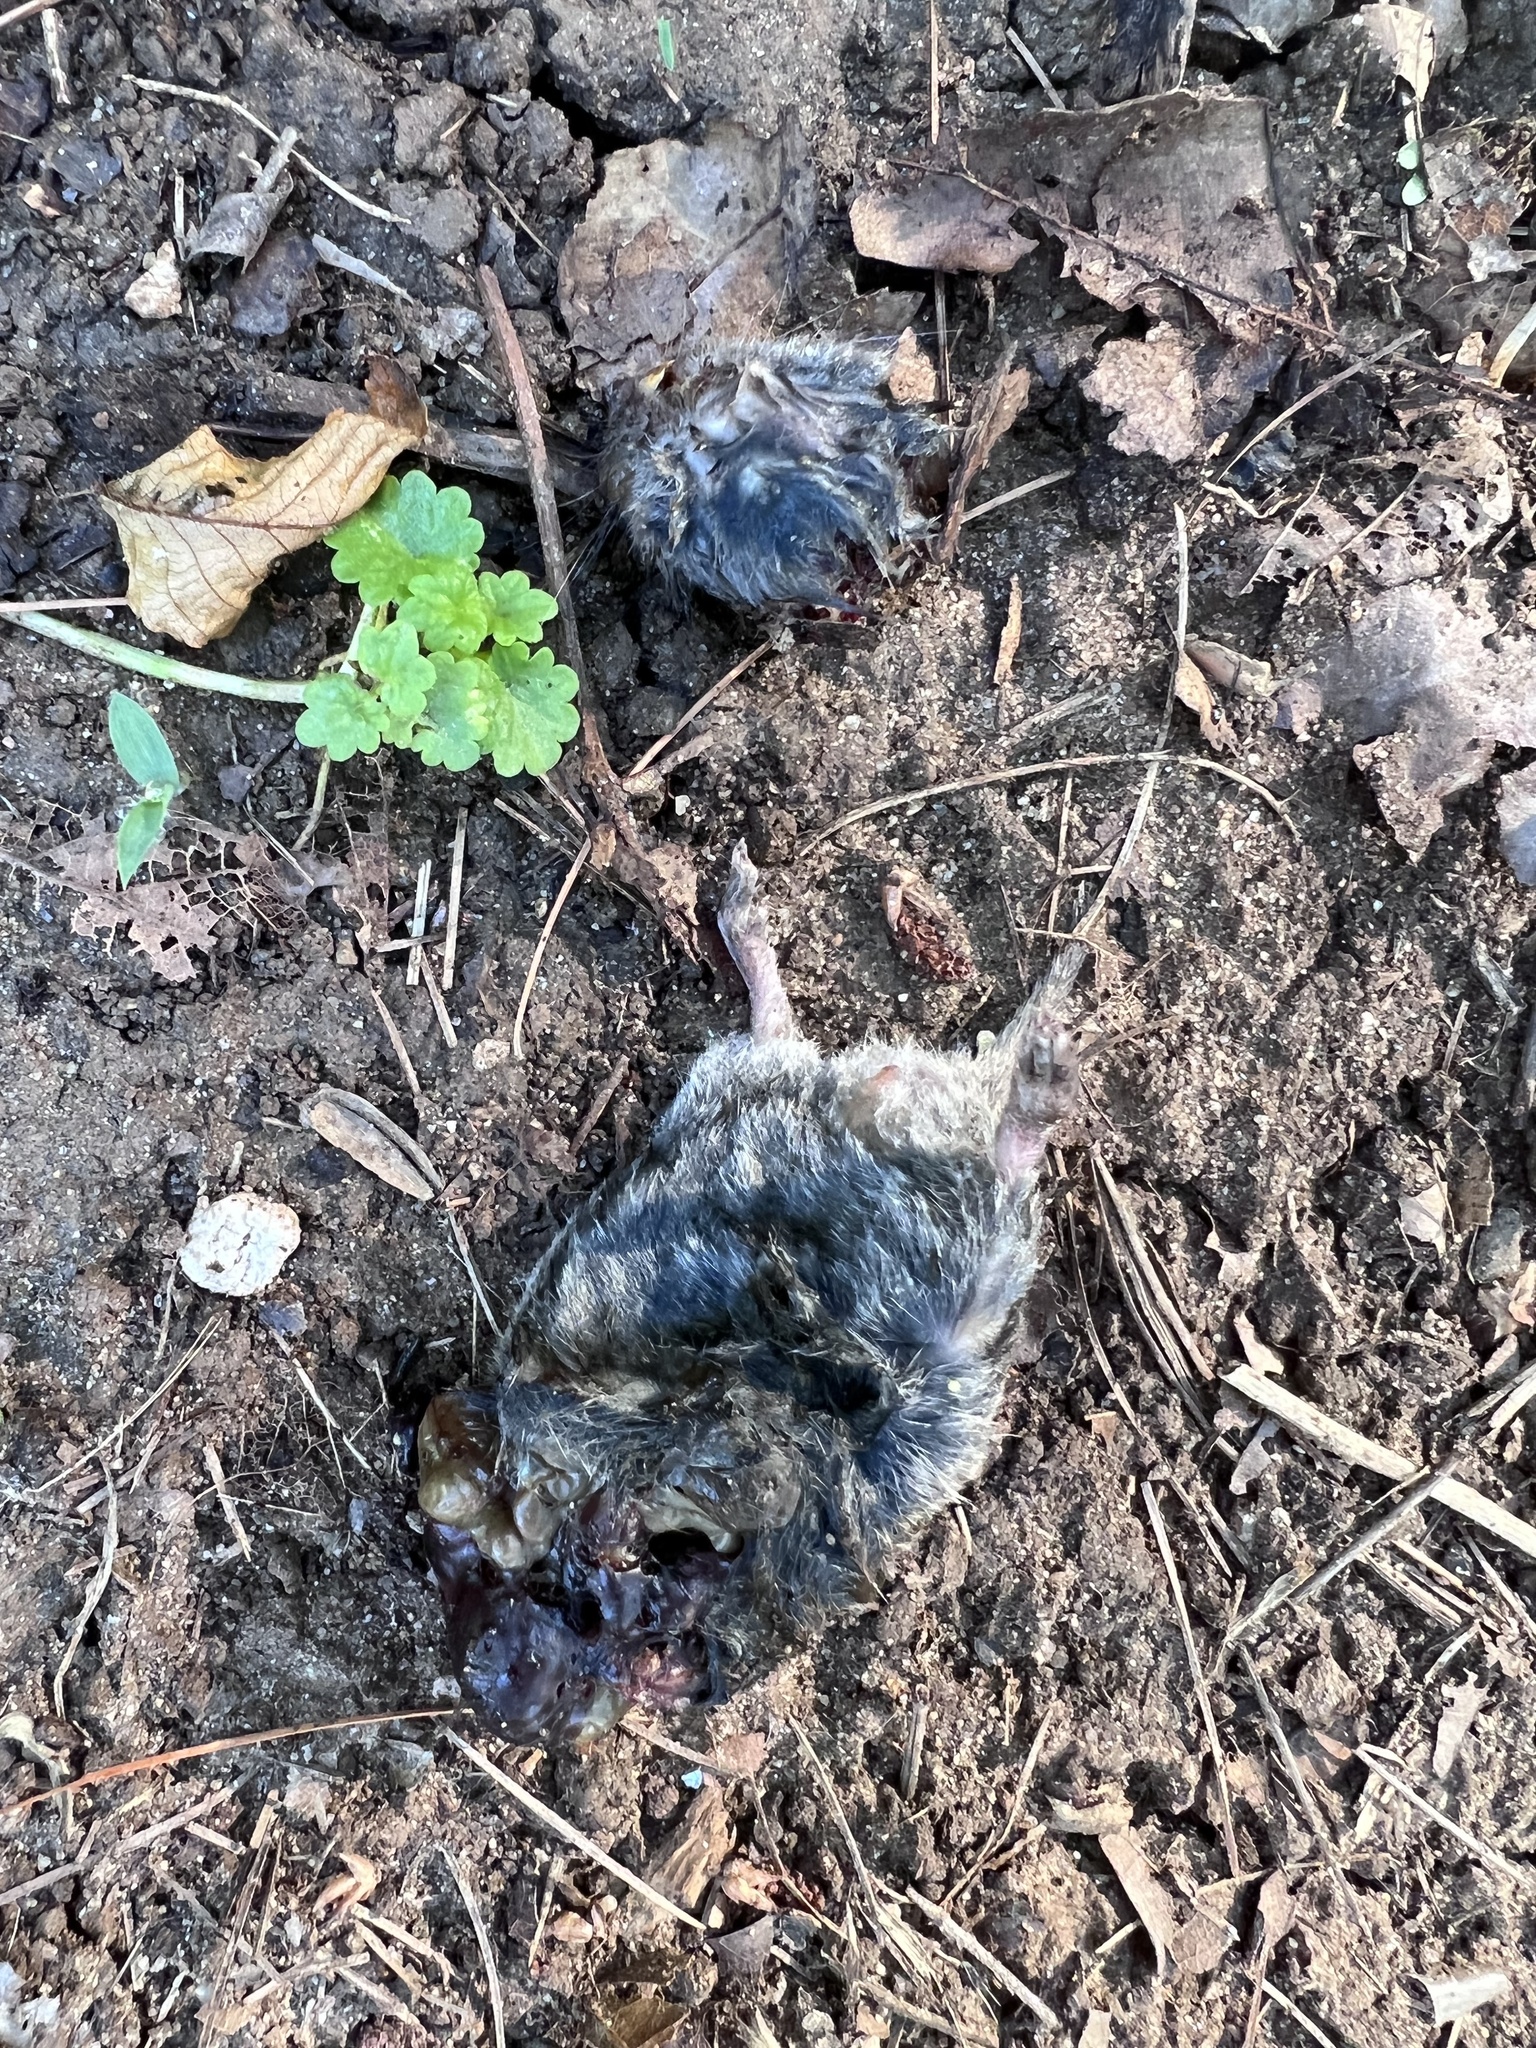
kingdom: Animalia
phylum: Chordata
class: Mammalia
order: Soricomorpha
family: Soricidae
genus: Blarina
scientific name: Blarina brevicauda
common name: Northern short-tailed shrew
